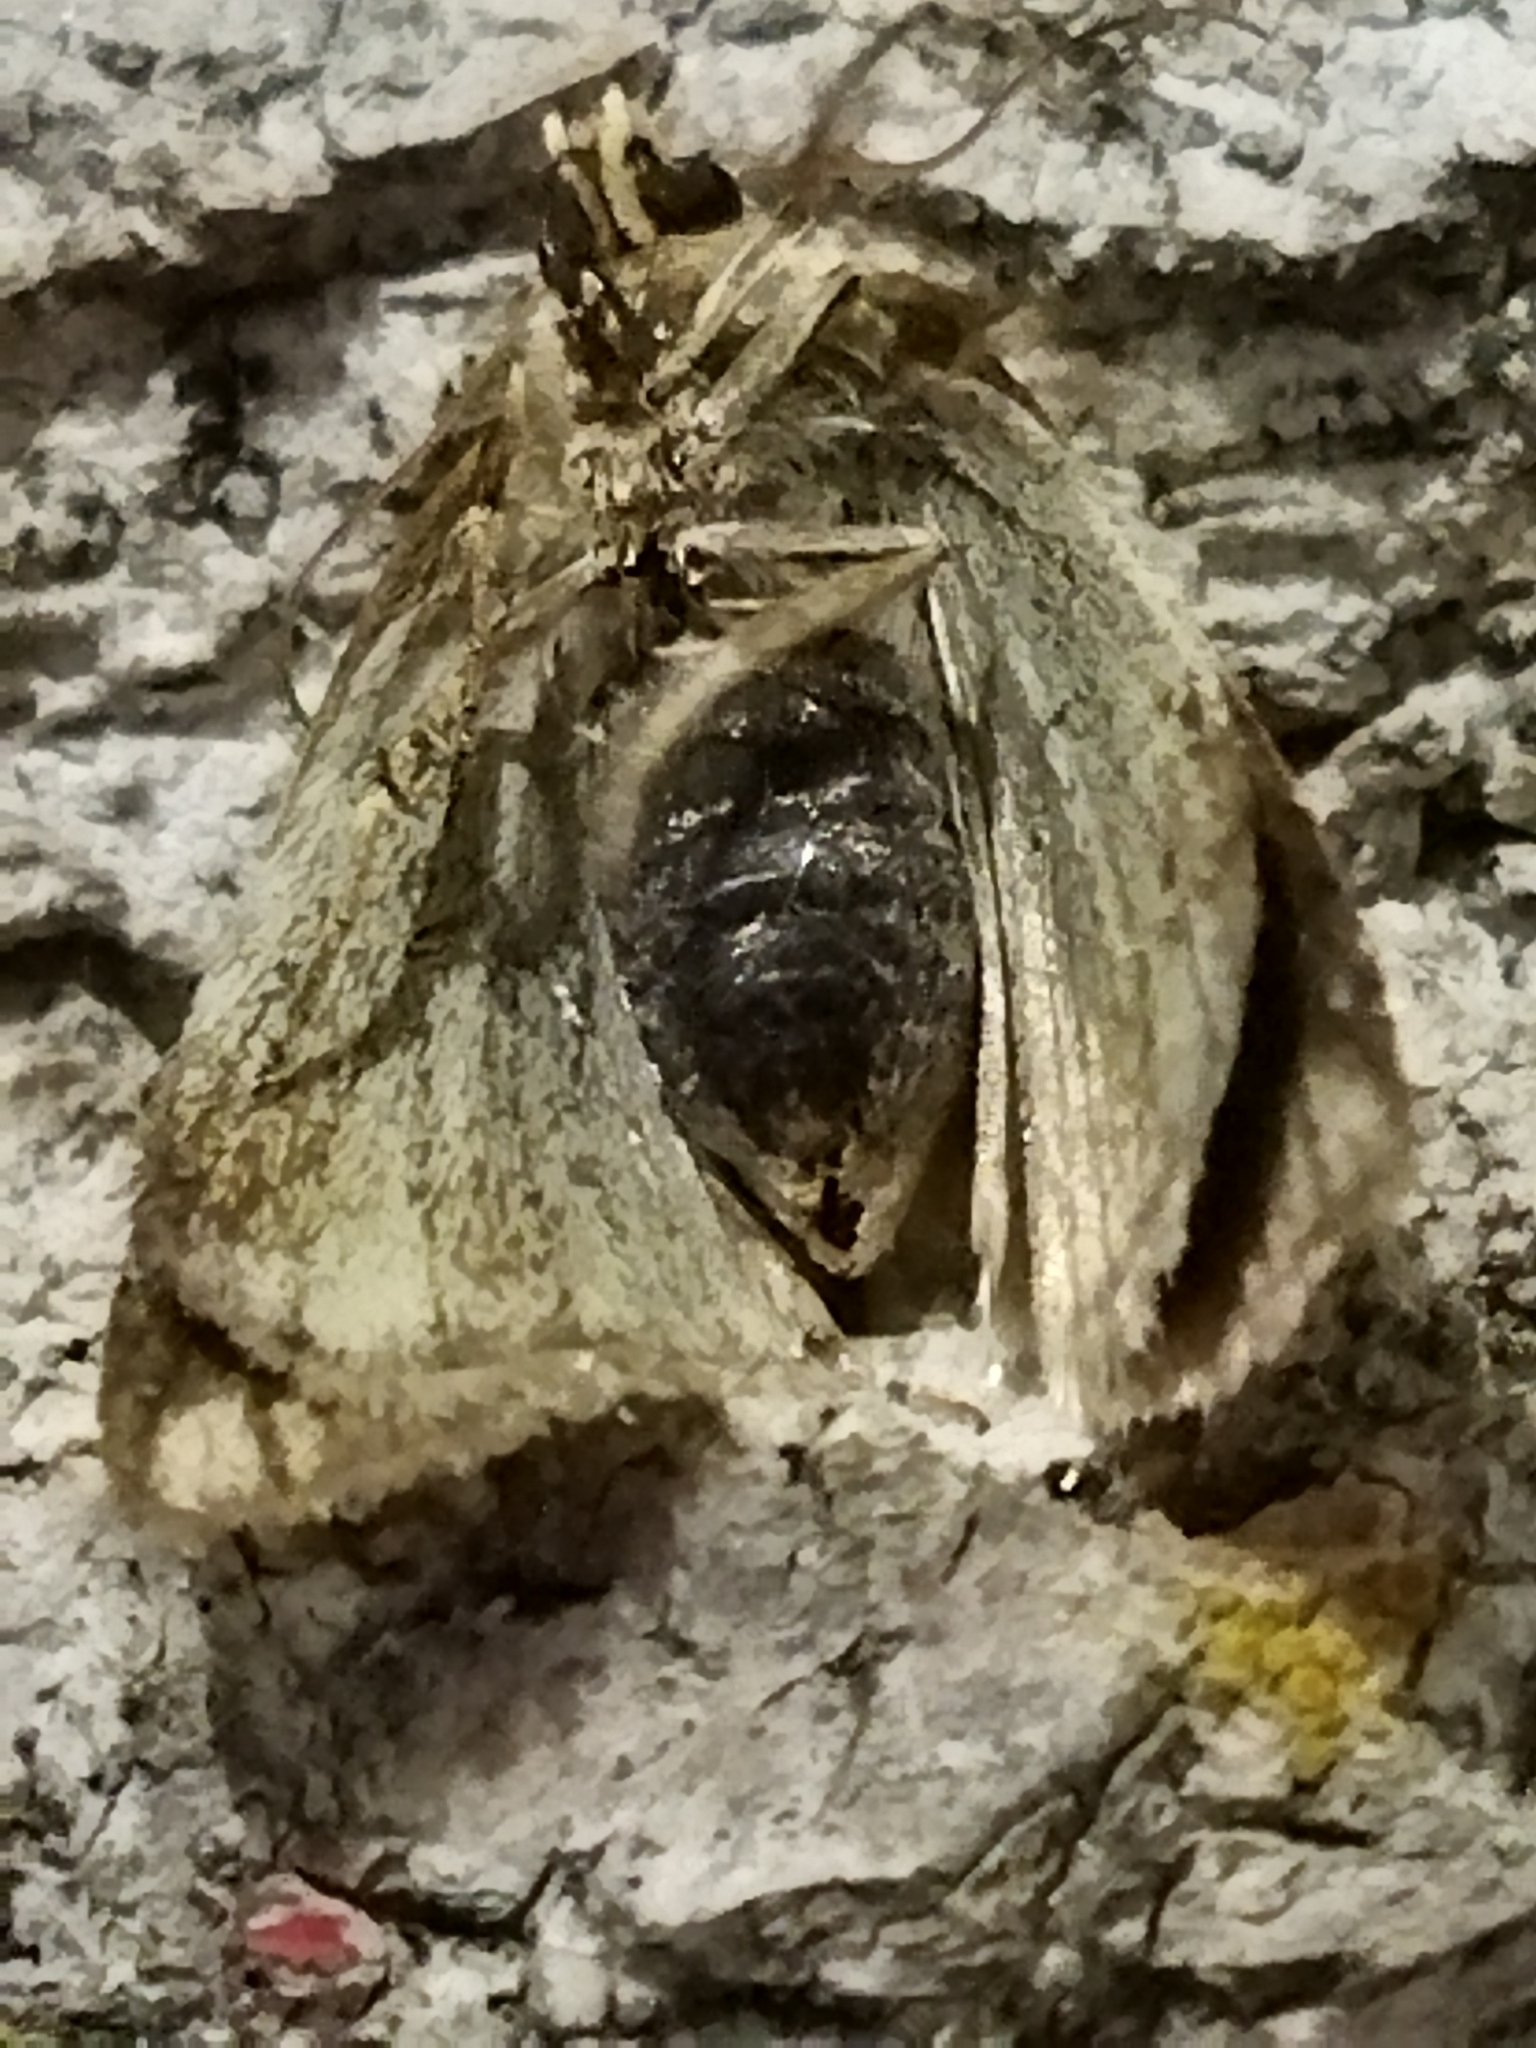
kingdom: Animalia
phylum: Arthropoda
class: Insecta
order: Lepidoptera
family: Noctuidae
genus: Aegle
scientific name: Aegle kaekeritziana
